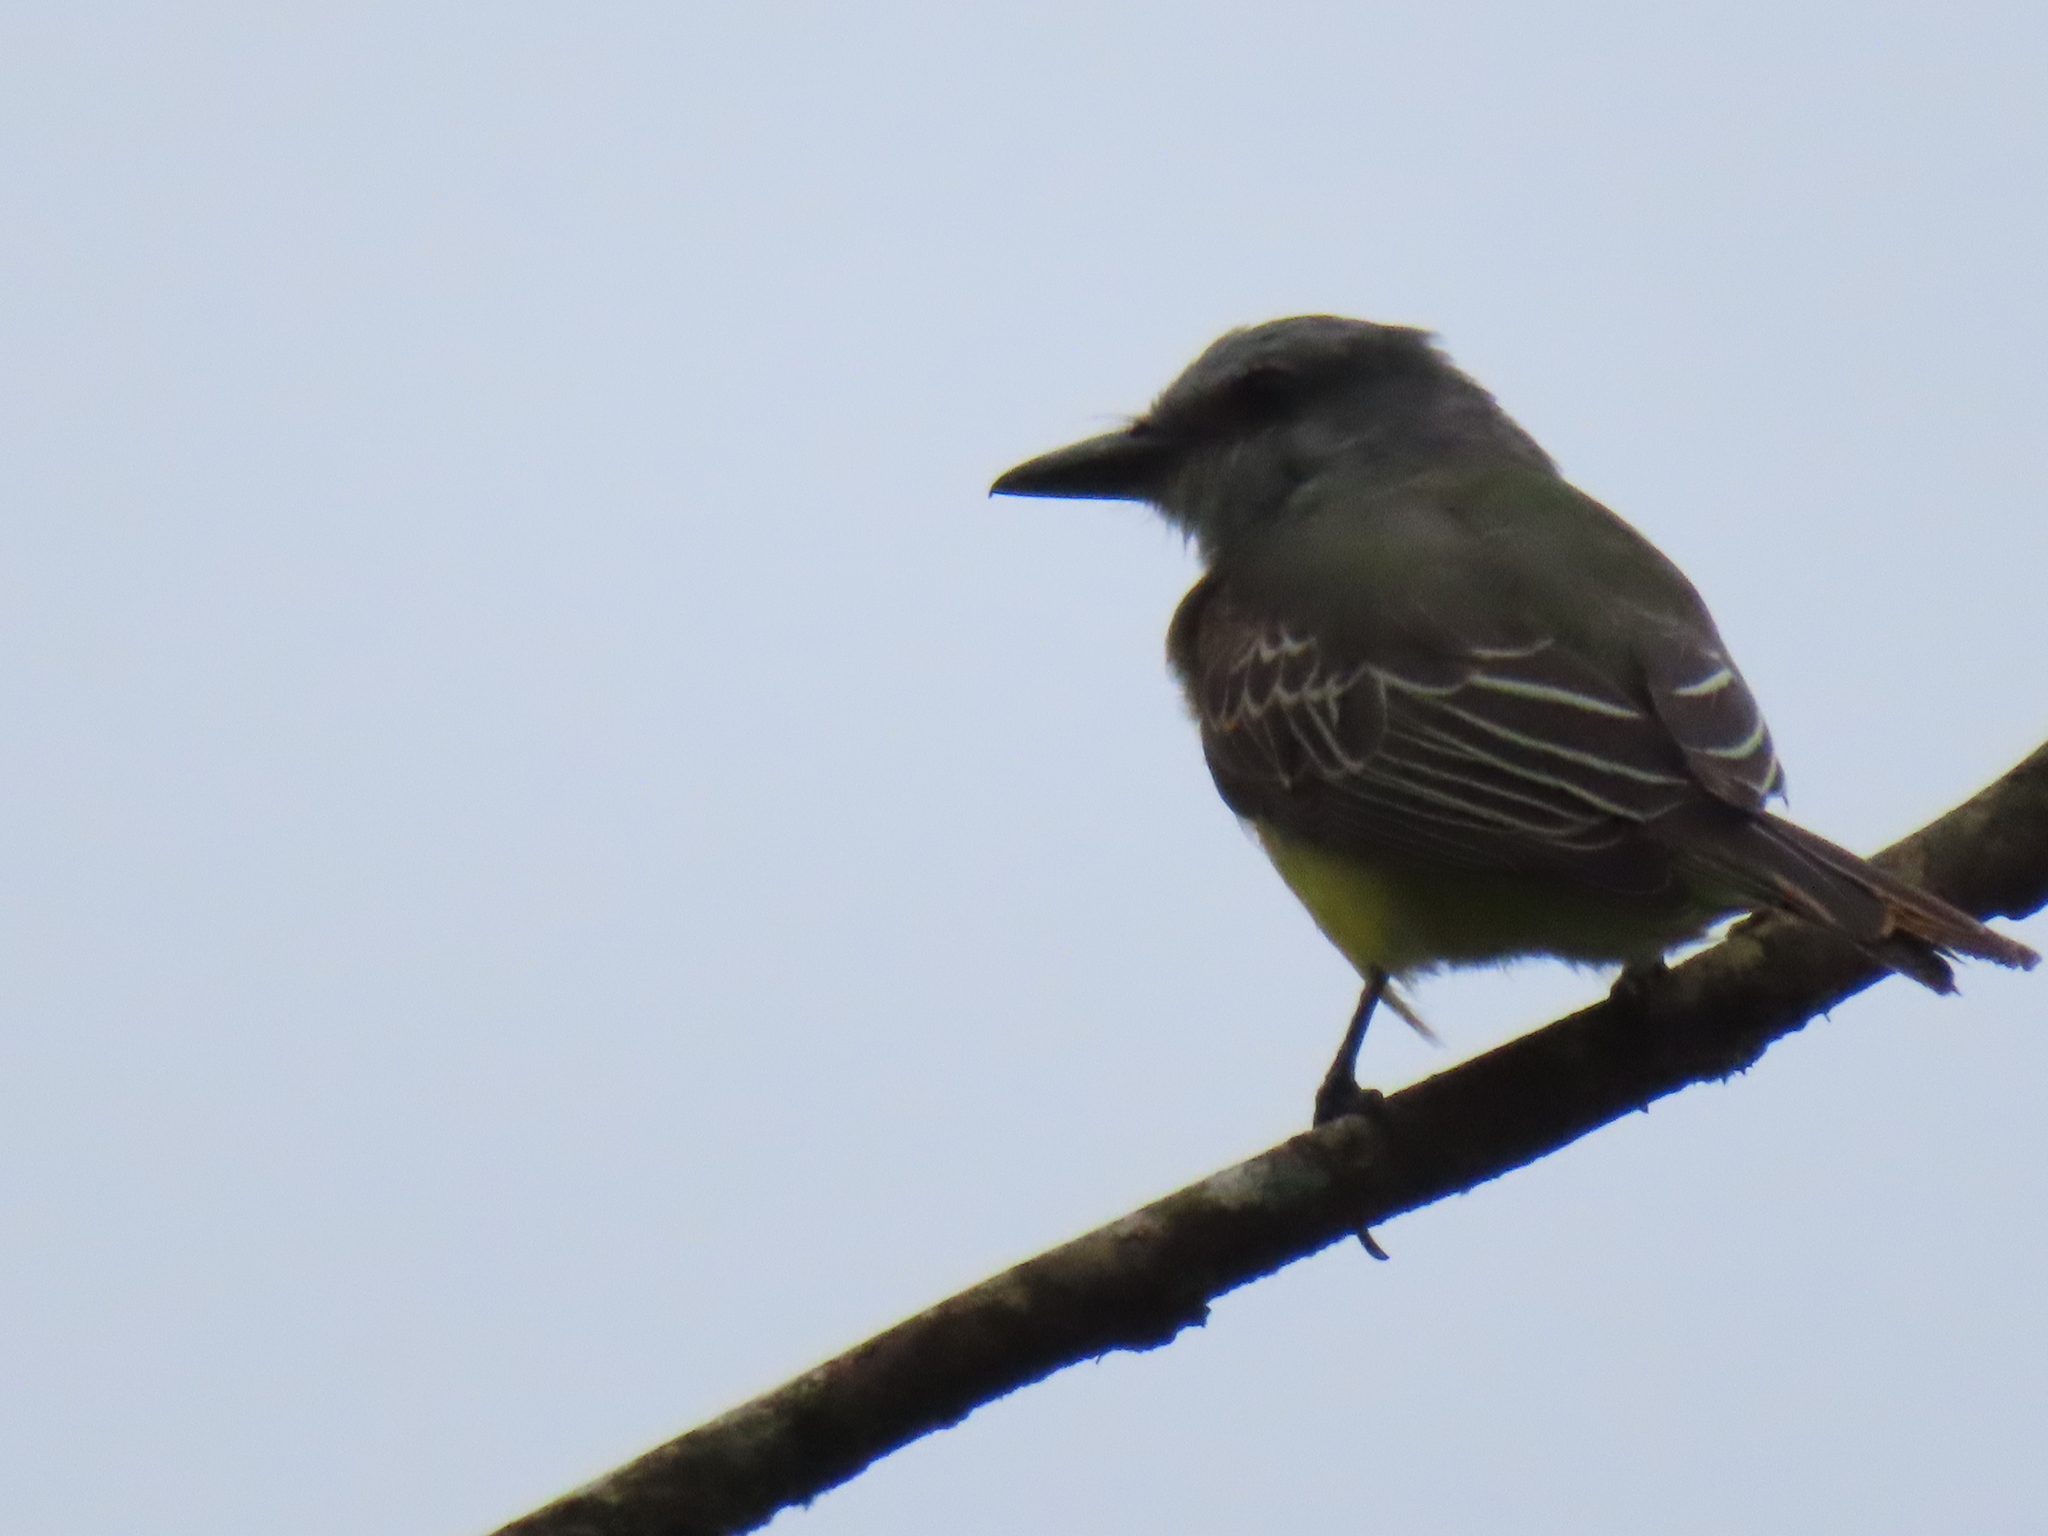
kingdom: Animalia
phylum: Chordata
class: Aves
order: Passeriformes
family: Tyrannidae
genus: Tyrannus
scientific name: Tyrannus melancholicus
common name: Tropical kingbird
